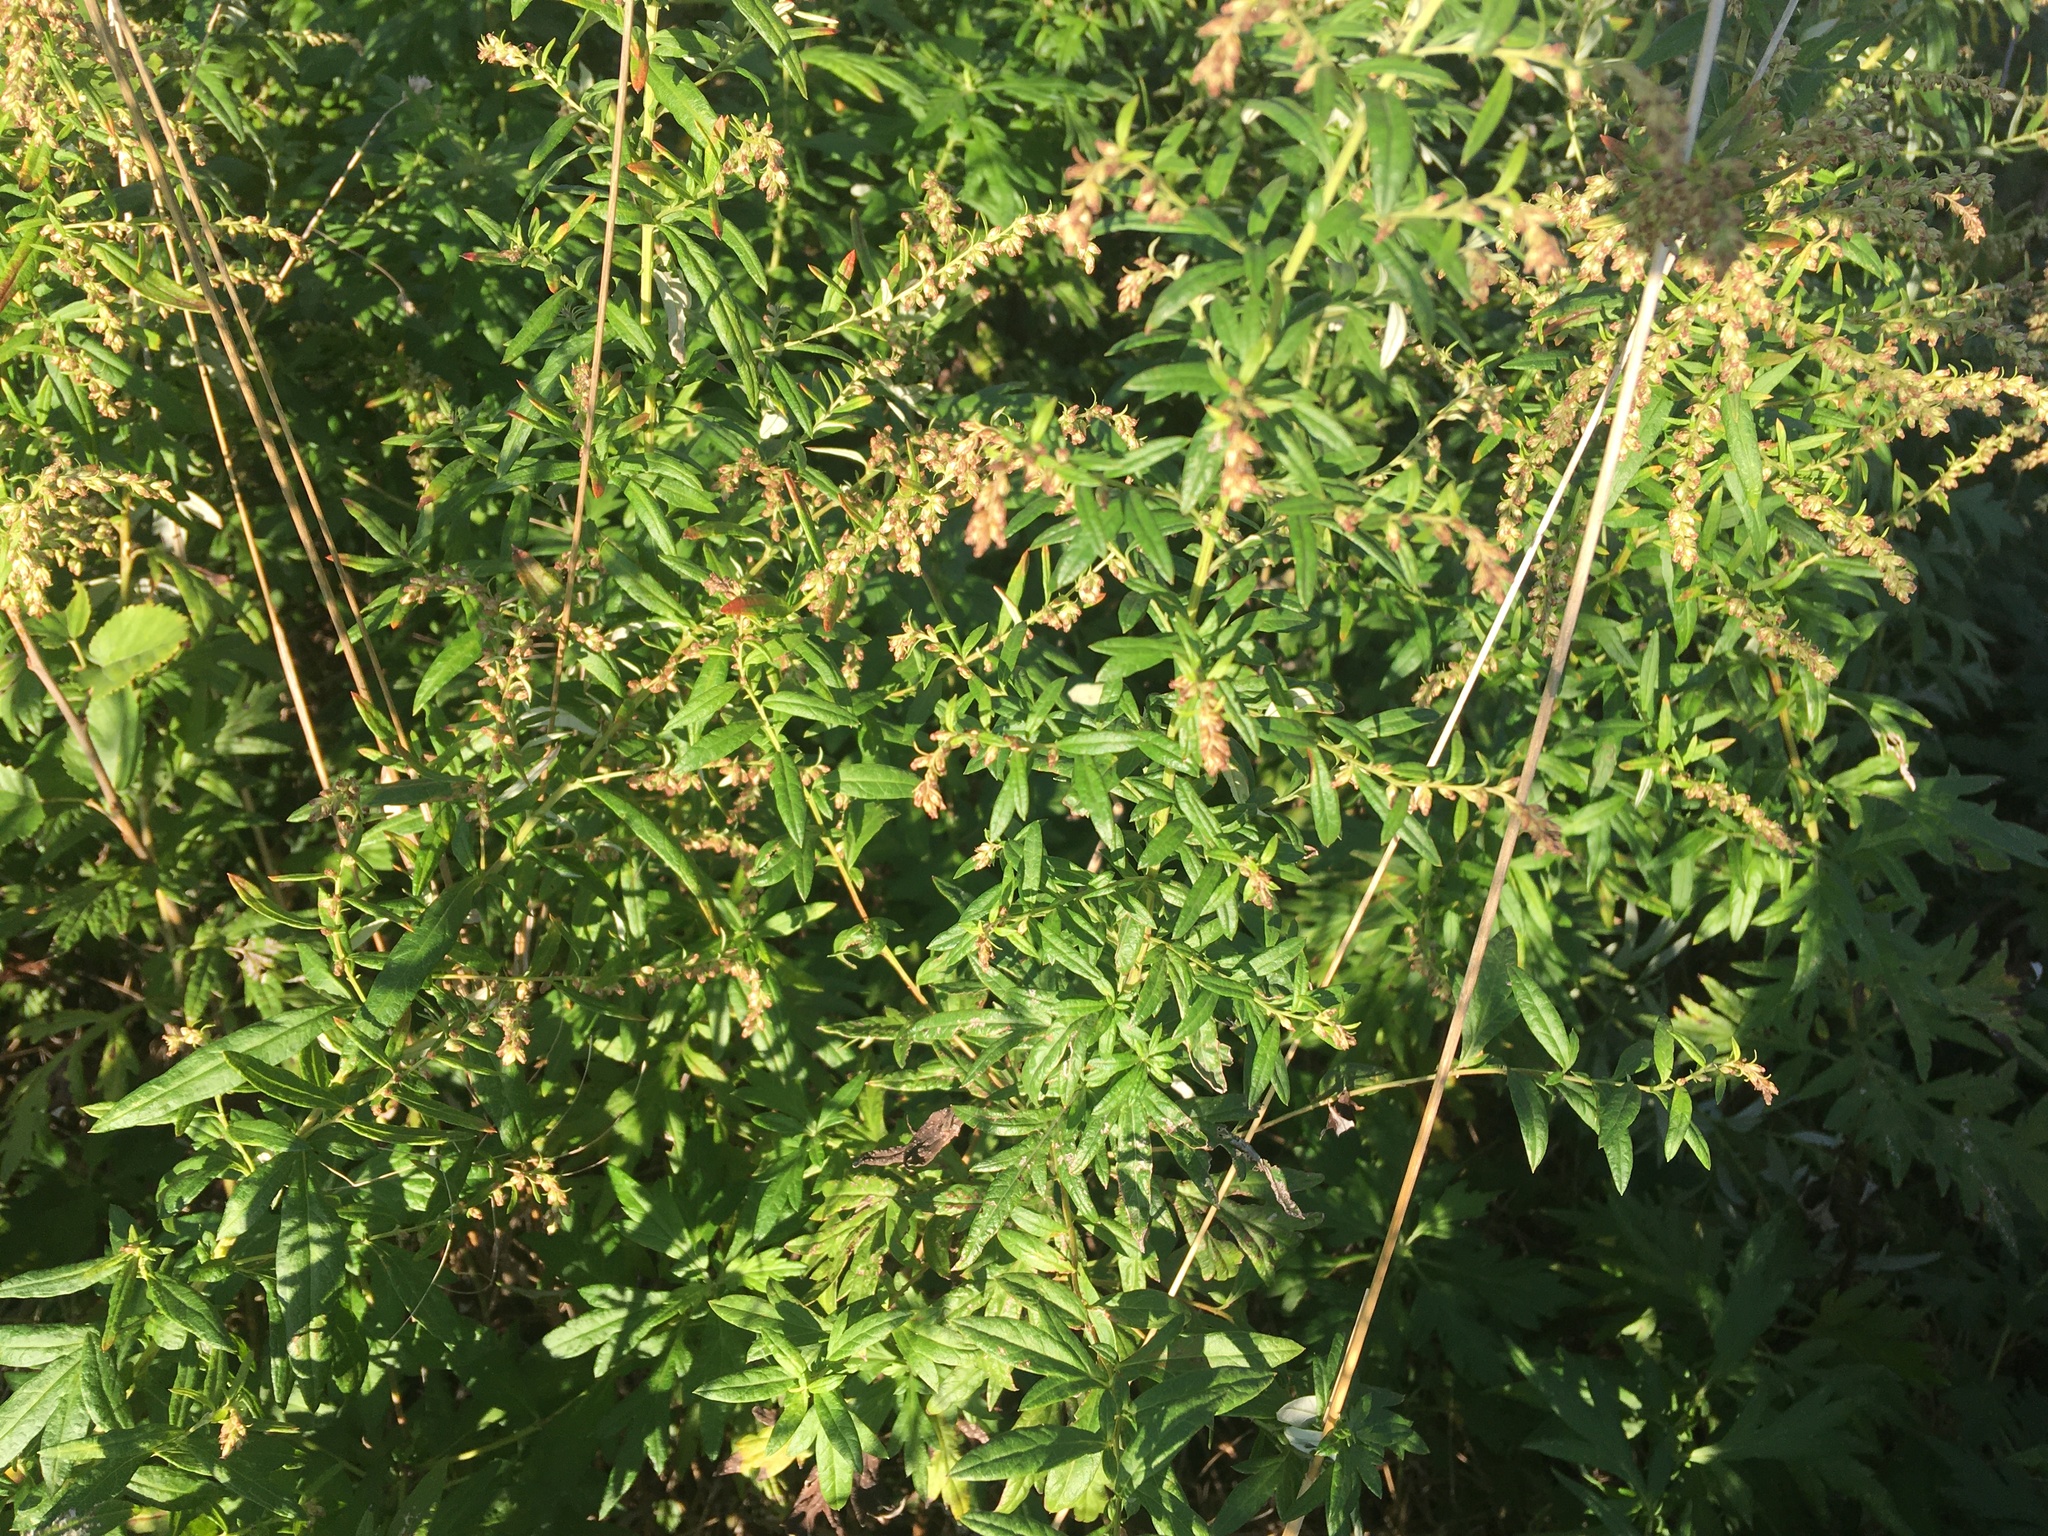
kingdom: Plantae
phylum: Tracheophyta
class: Magnoliopsida
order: Asterales
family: Asteraceae
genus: Artemisia
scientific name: Artemisia vulgaris
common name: Mugwort
